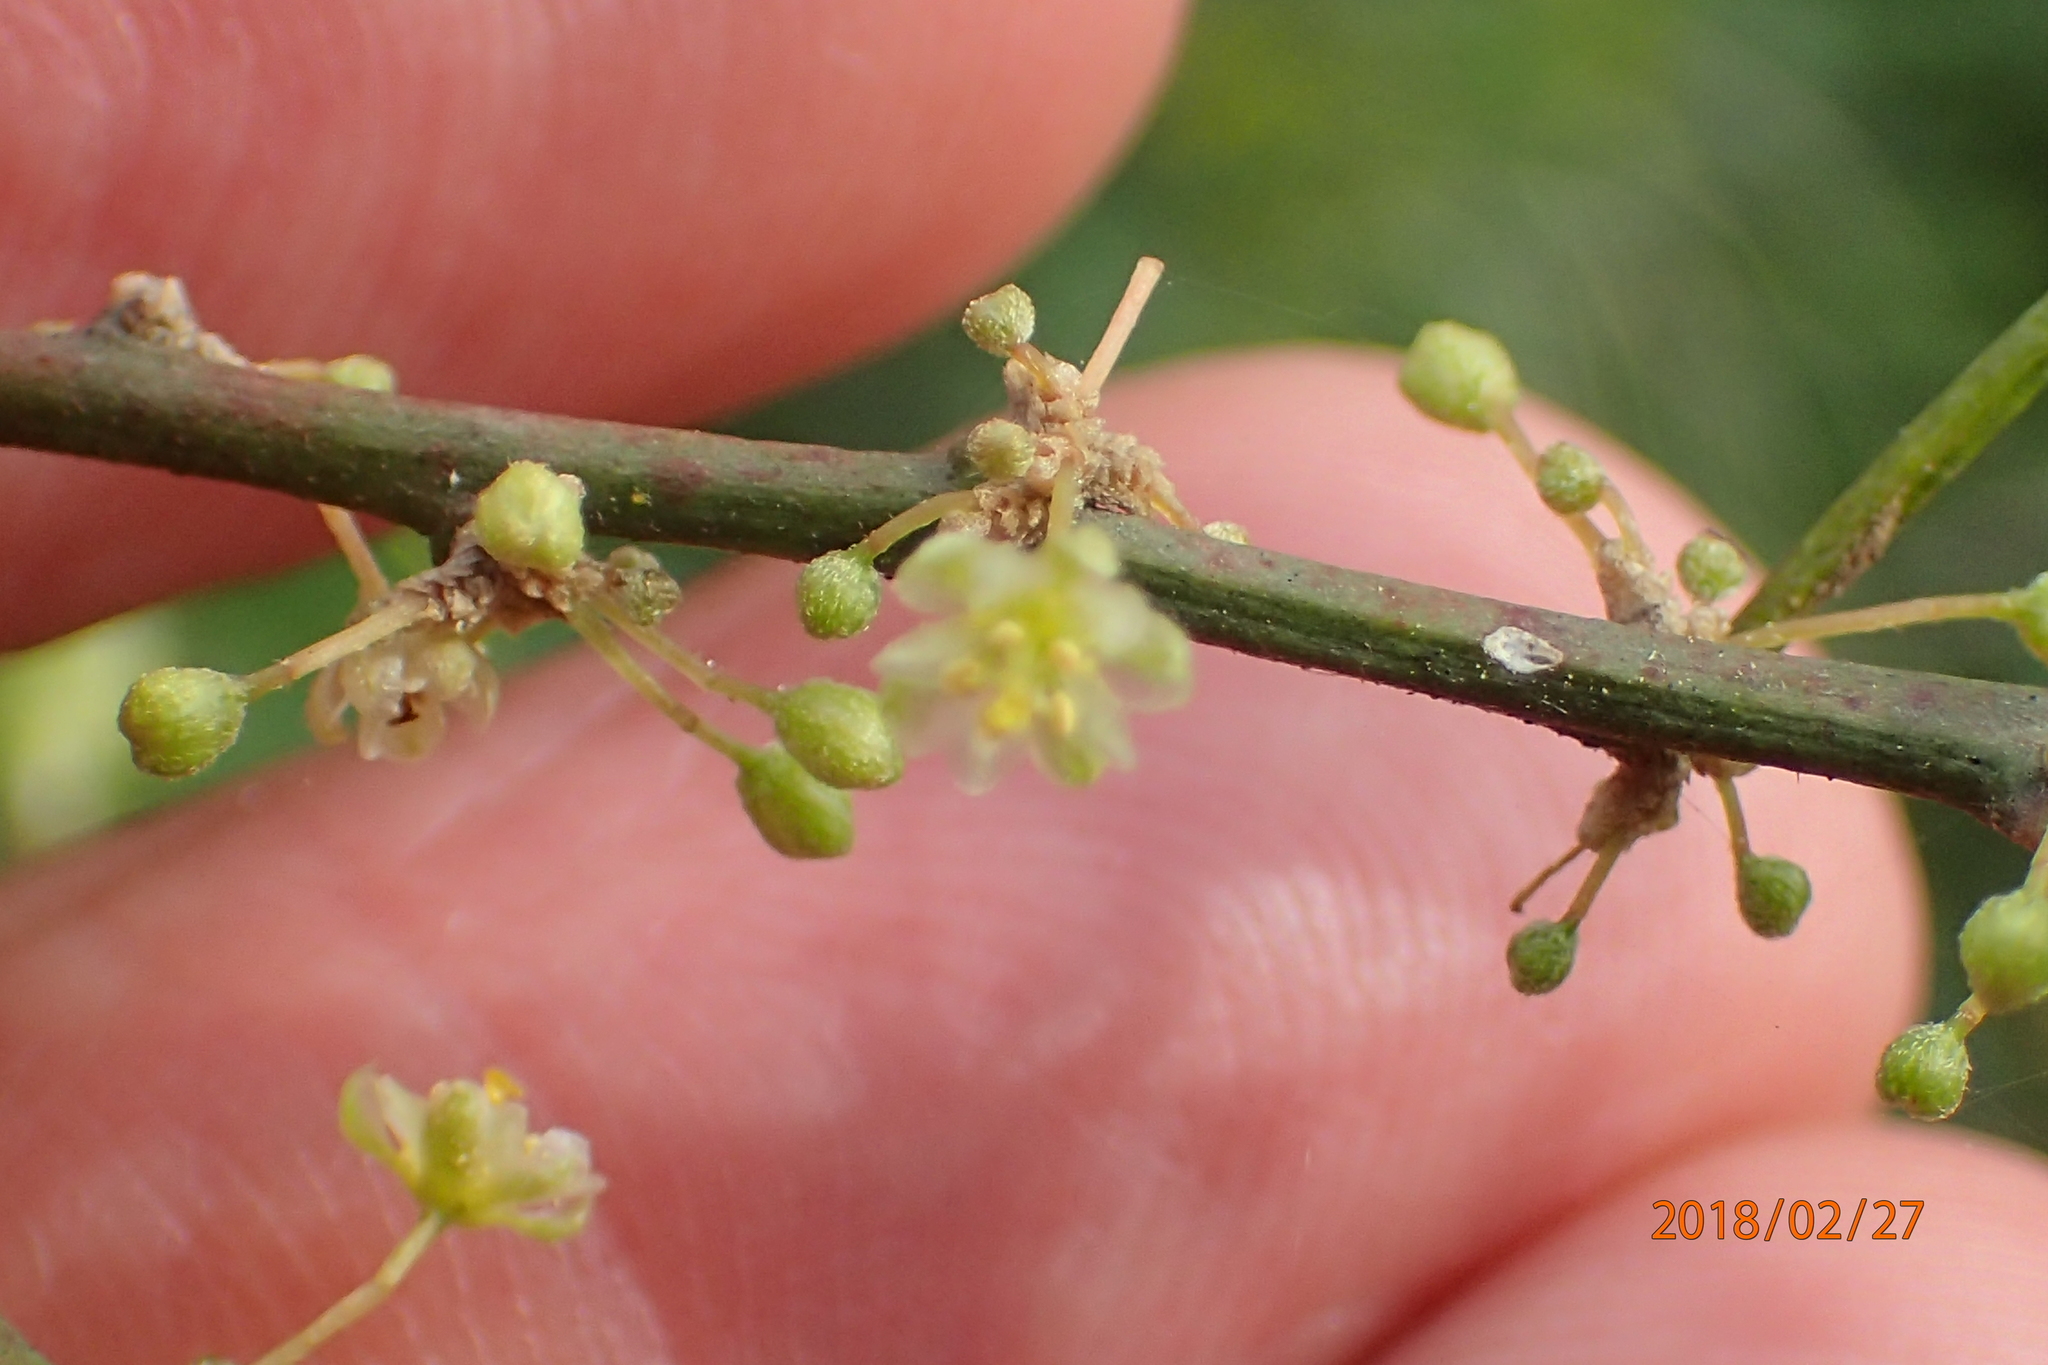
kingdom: Plantae
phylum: Tracheophyta
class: Magnoliopsida
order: Malpighiales
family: Peraceae
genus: Clutia
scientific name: Clutia pulchella
